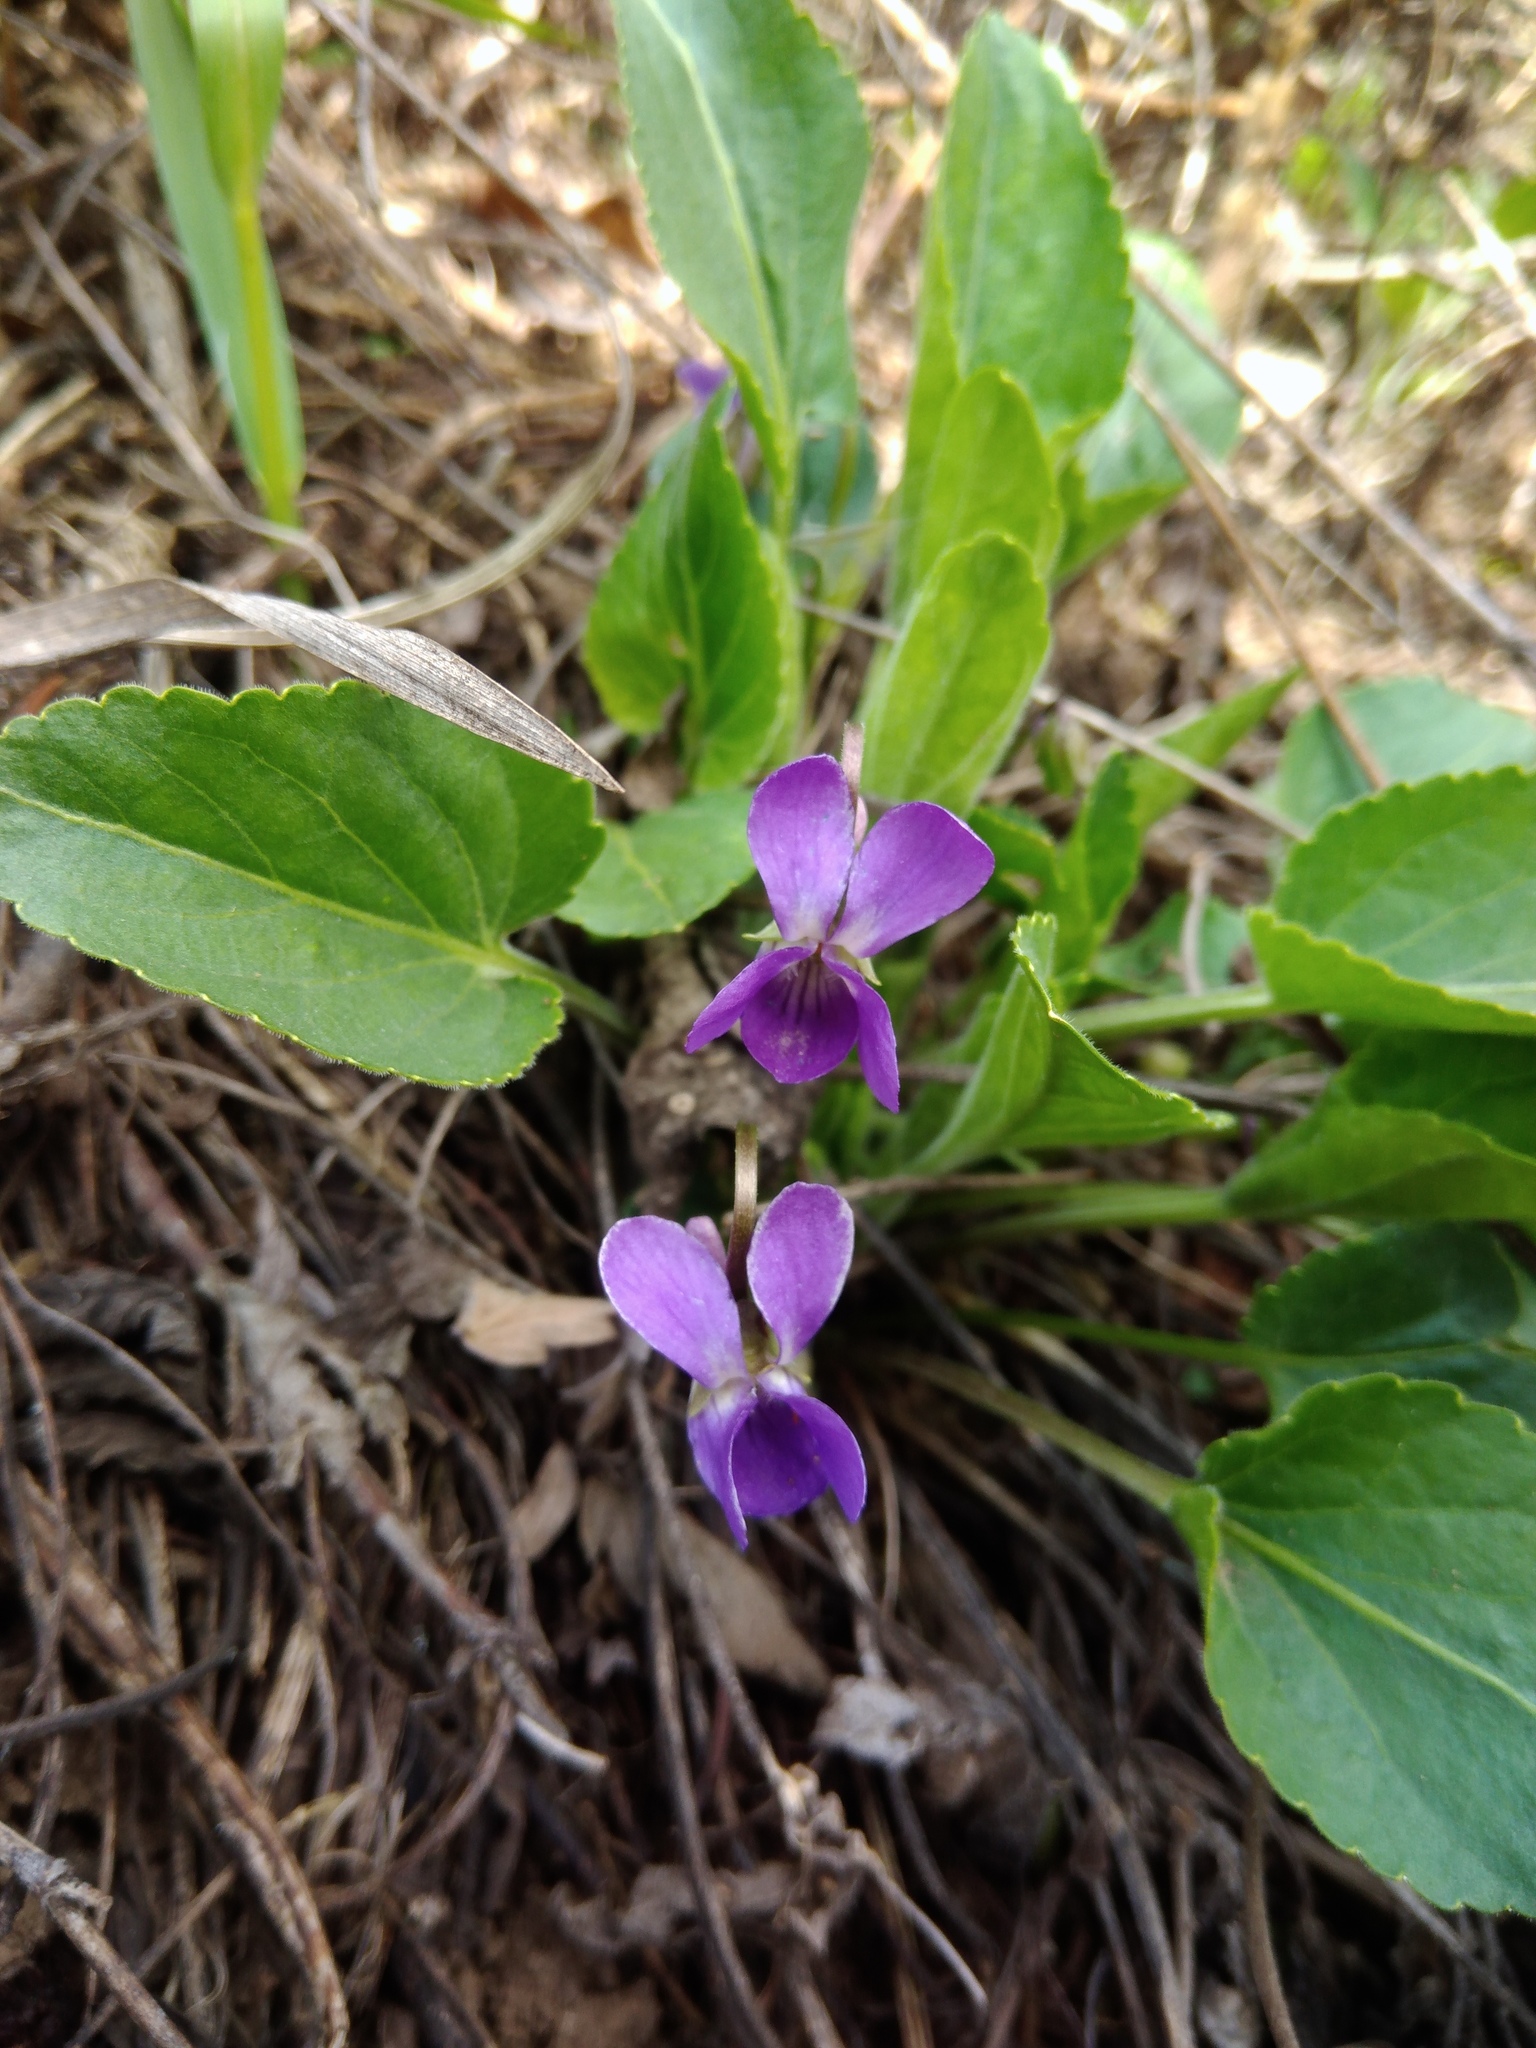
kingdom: Plantae
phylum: Tracheophyta
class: Magnoliopsida
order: Malpighiales
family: Violaceae
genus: Viola
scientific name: Viola ambigua
